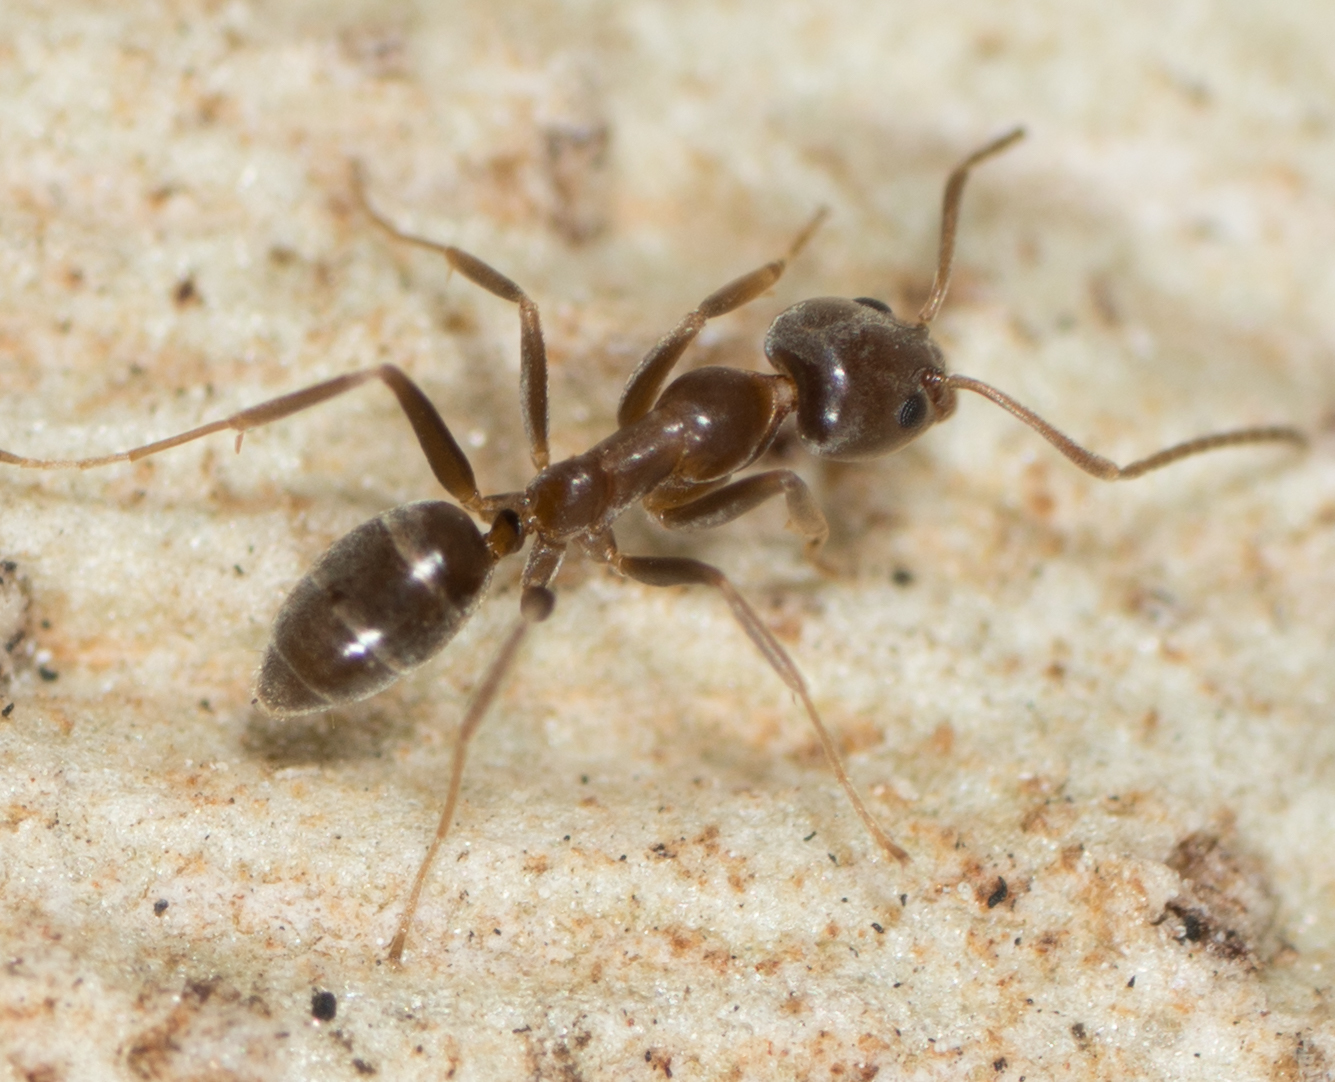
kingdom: Animalia
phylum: Arthropoda
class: Insecta
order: Hymenoptera
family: Formicidae
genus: Linepithema
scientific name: Linepithema humile
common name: Argentine ant
